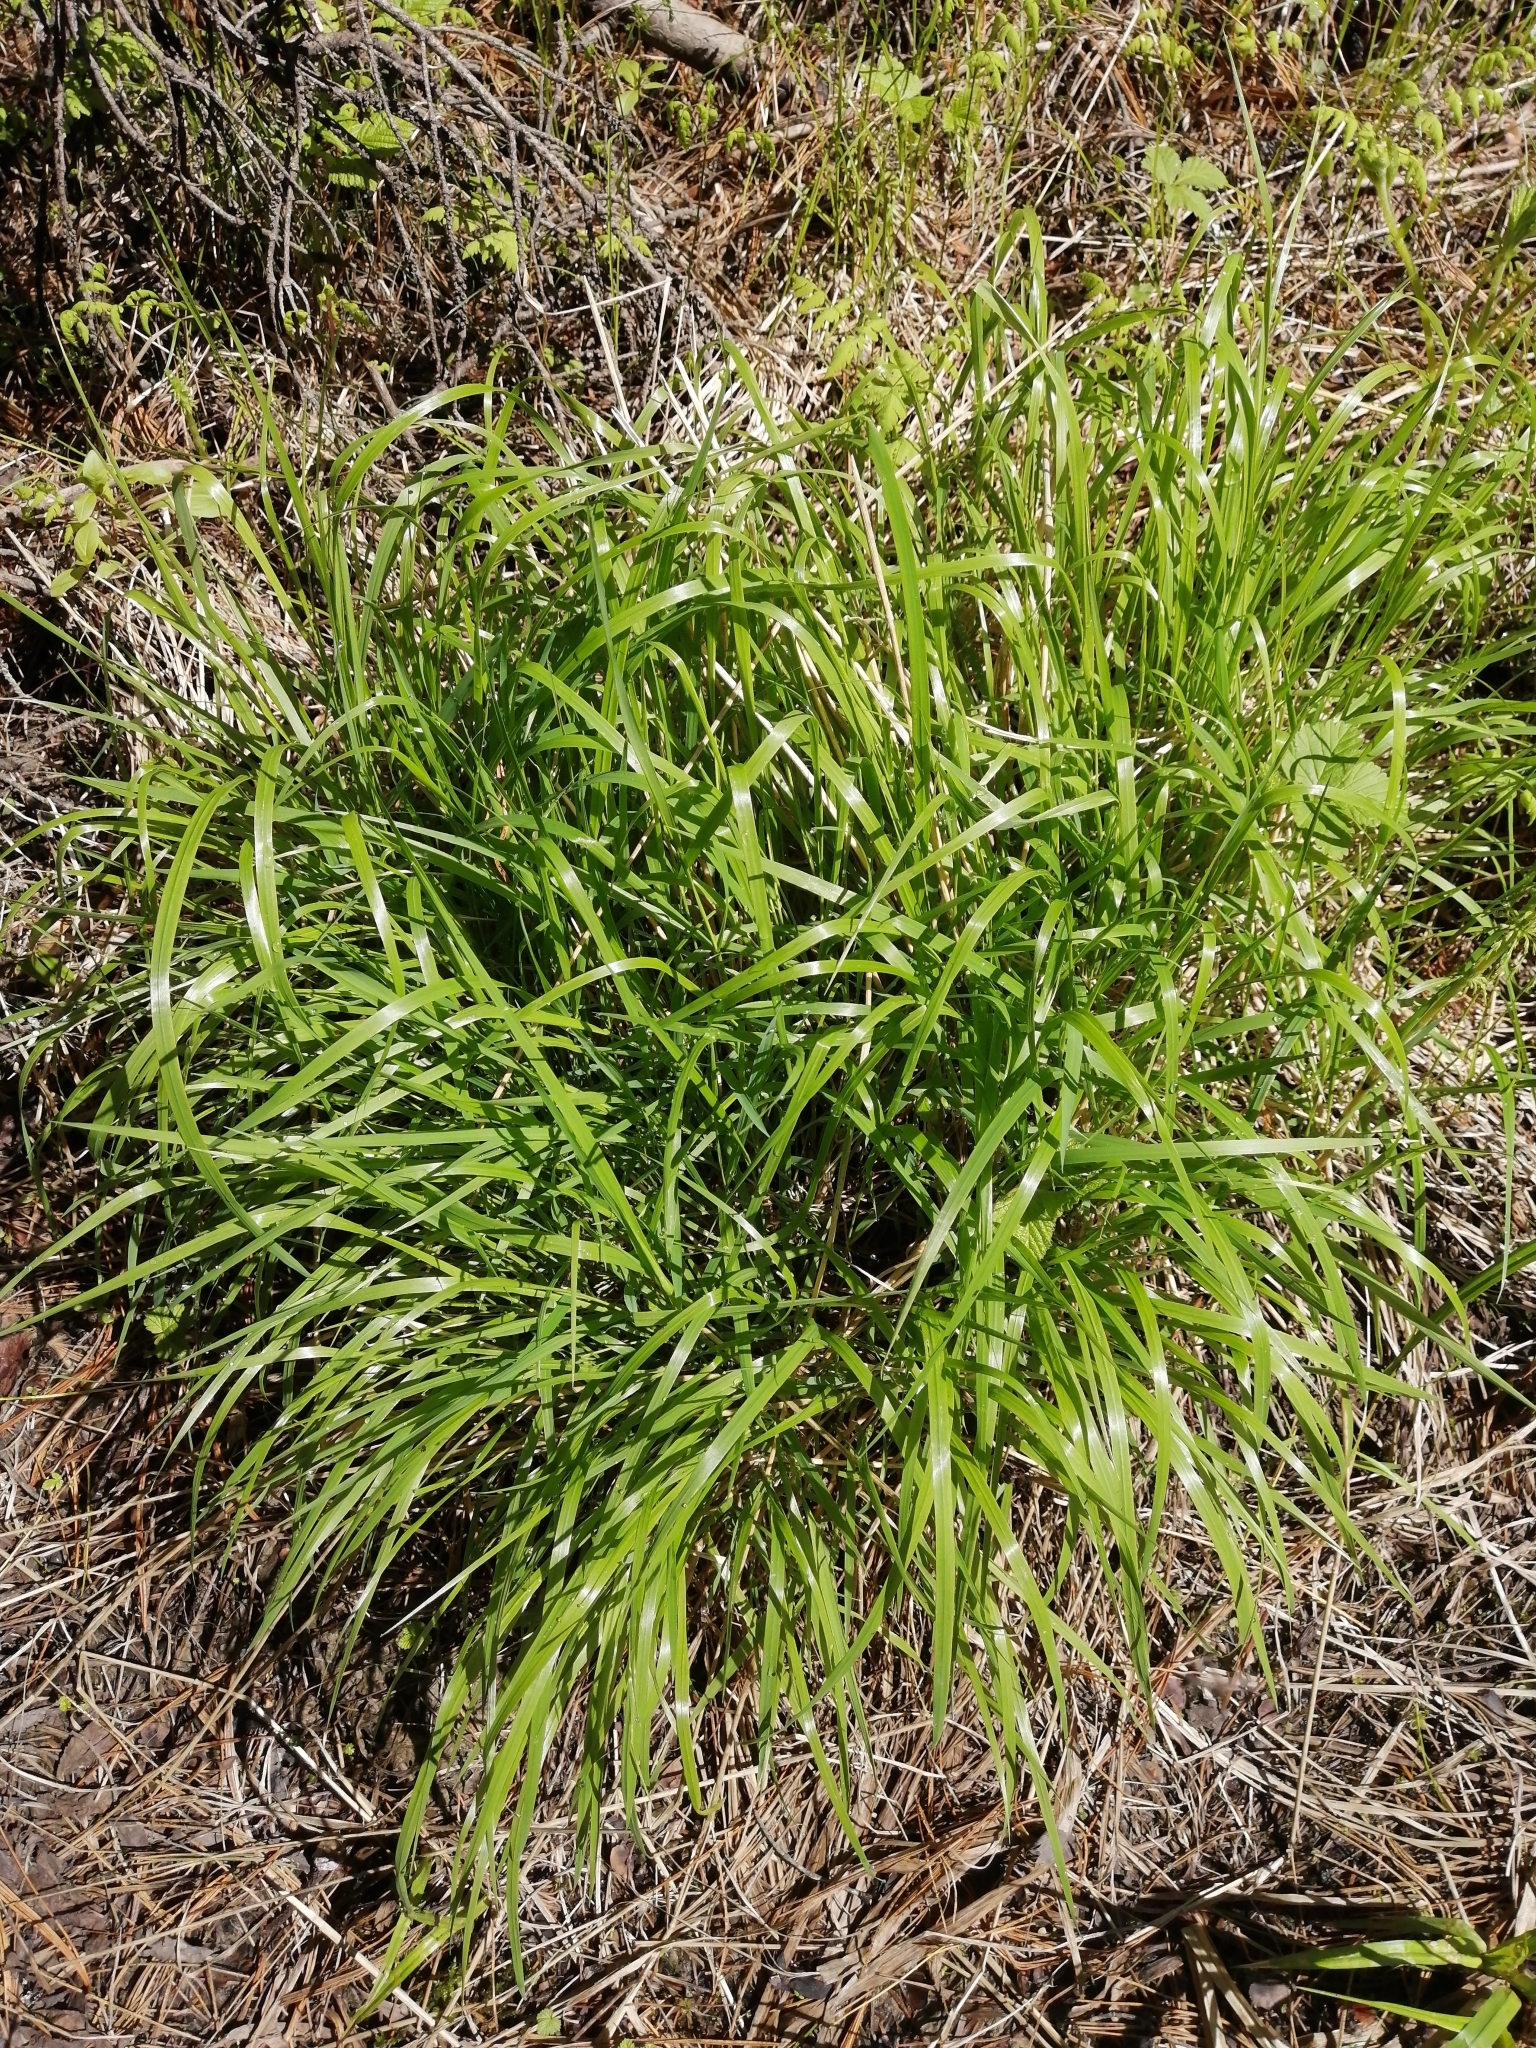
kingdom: Plantae
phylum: Tracheophyta
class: Liliopsida
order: Poales
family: Poaceae
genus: Calamagrostis
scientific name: Calamagrostis arundinacea
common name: Metskastik
